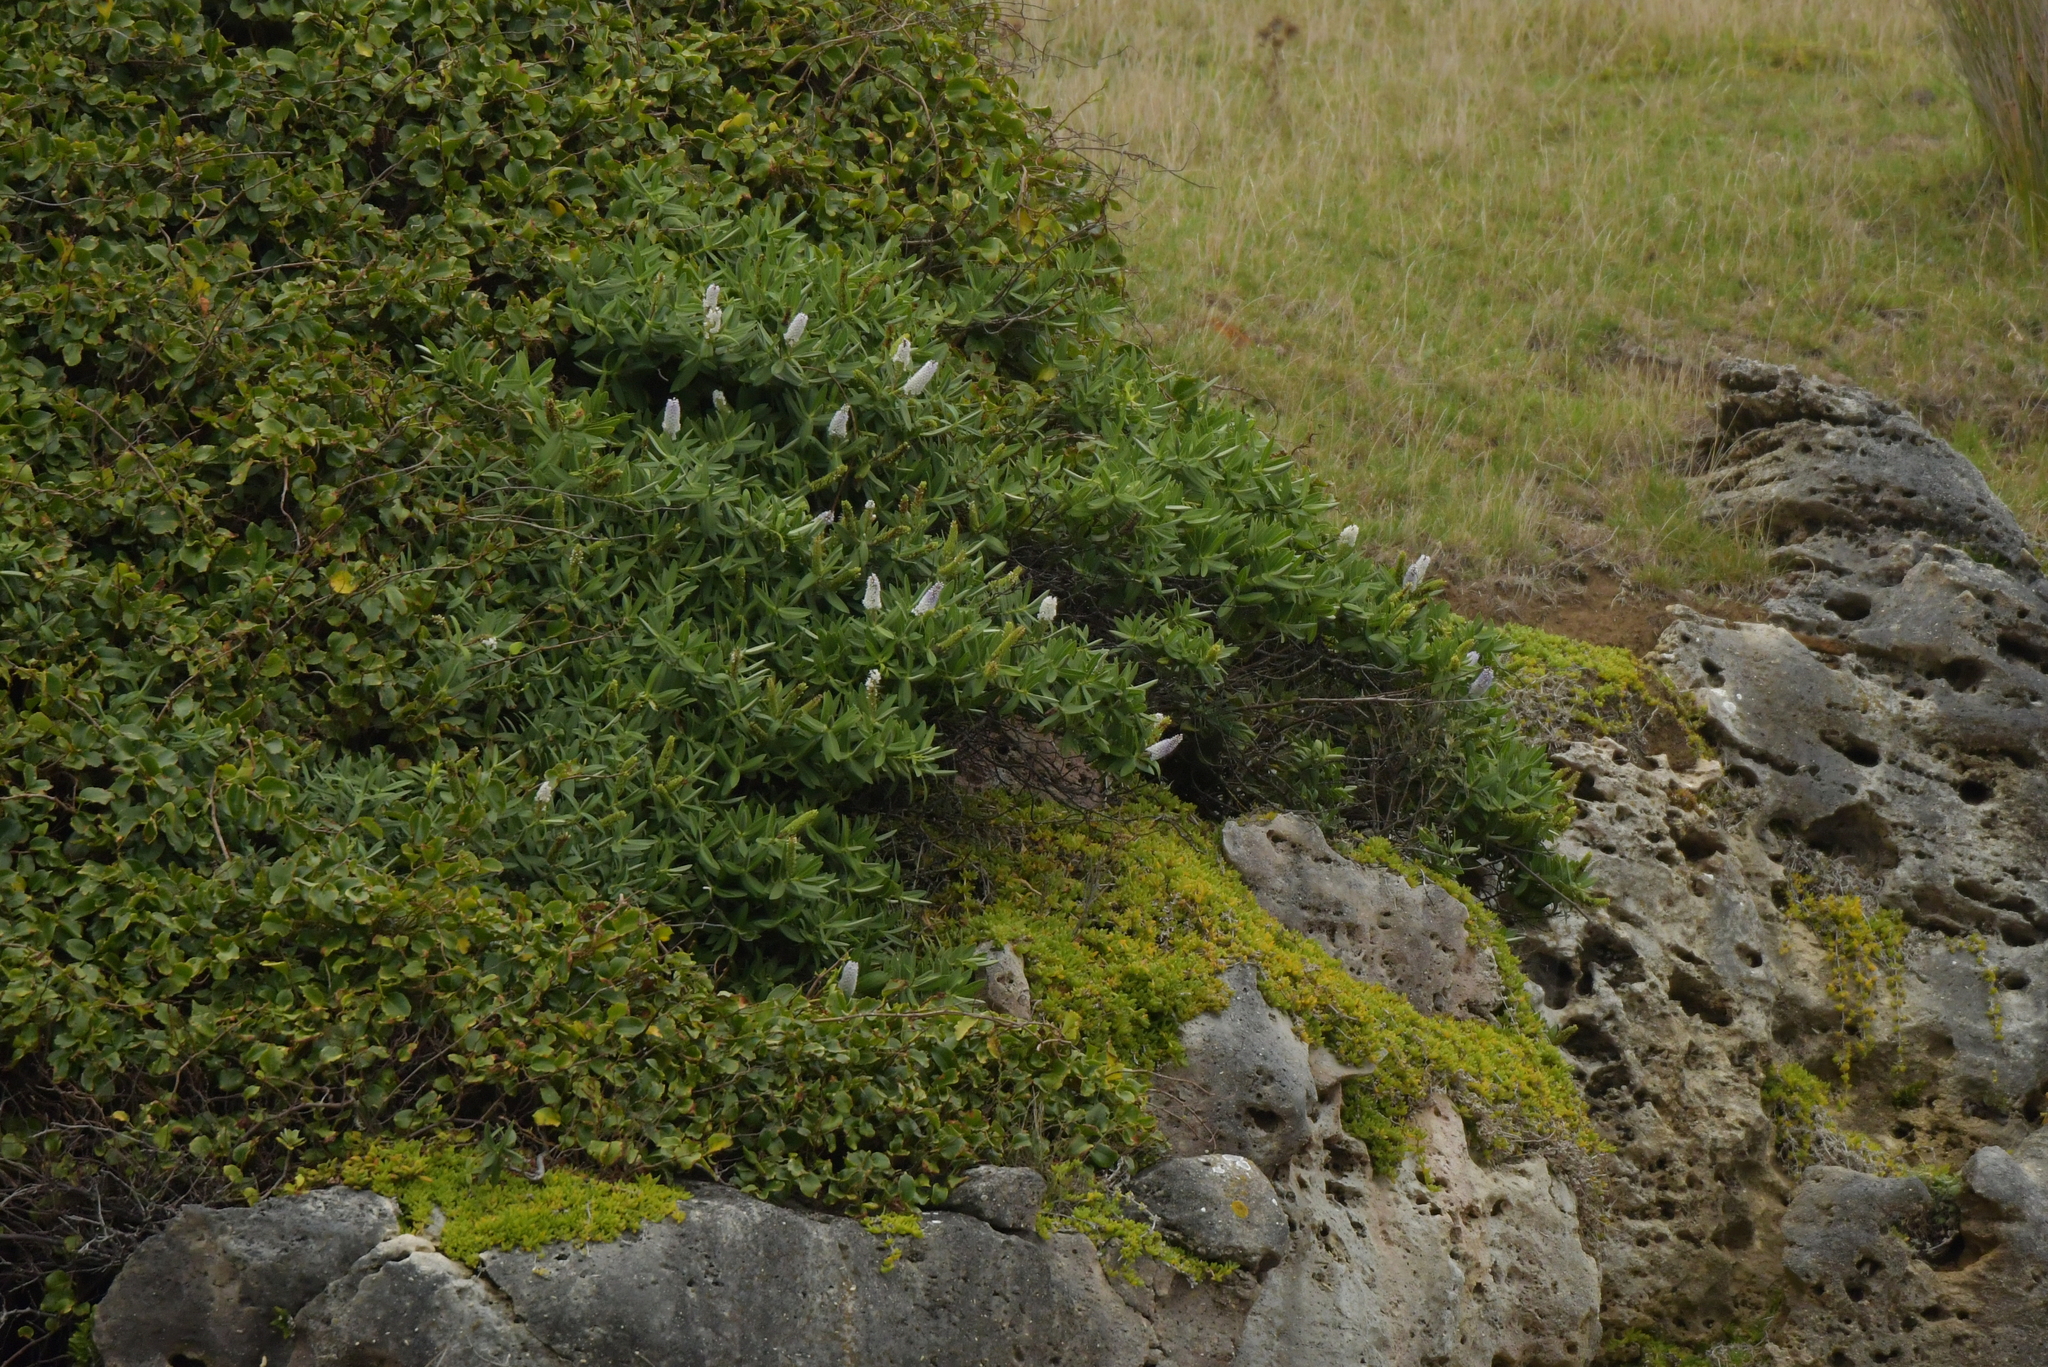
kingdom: Plantae
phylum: Tracheophyta
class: Magnoliopsida
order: Lamiales
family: Plantaginaceae
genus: Veronica
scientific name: Veronica dieffenbachii
